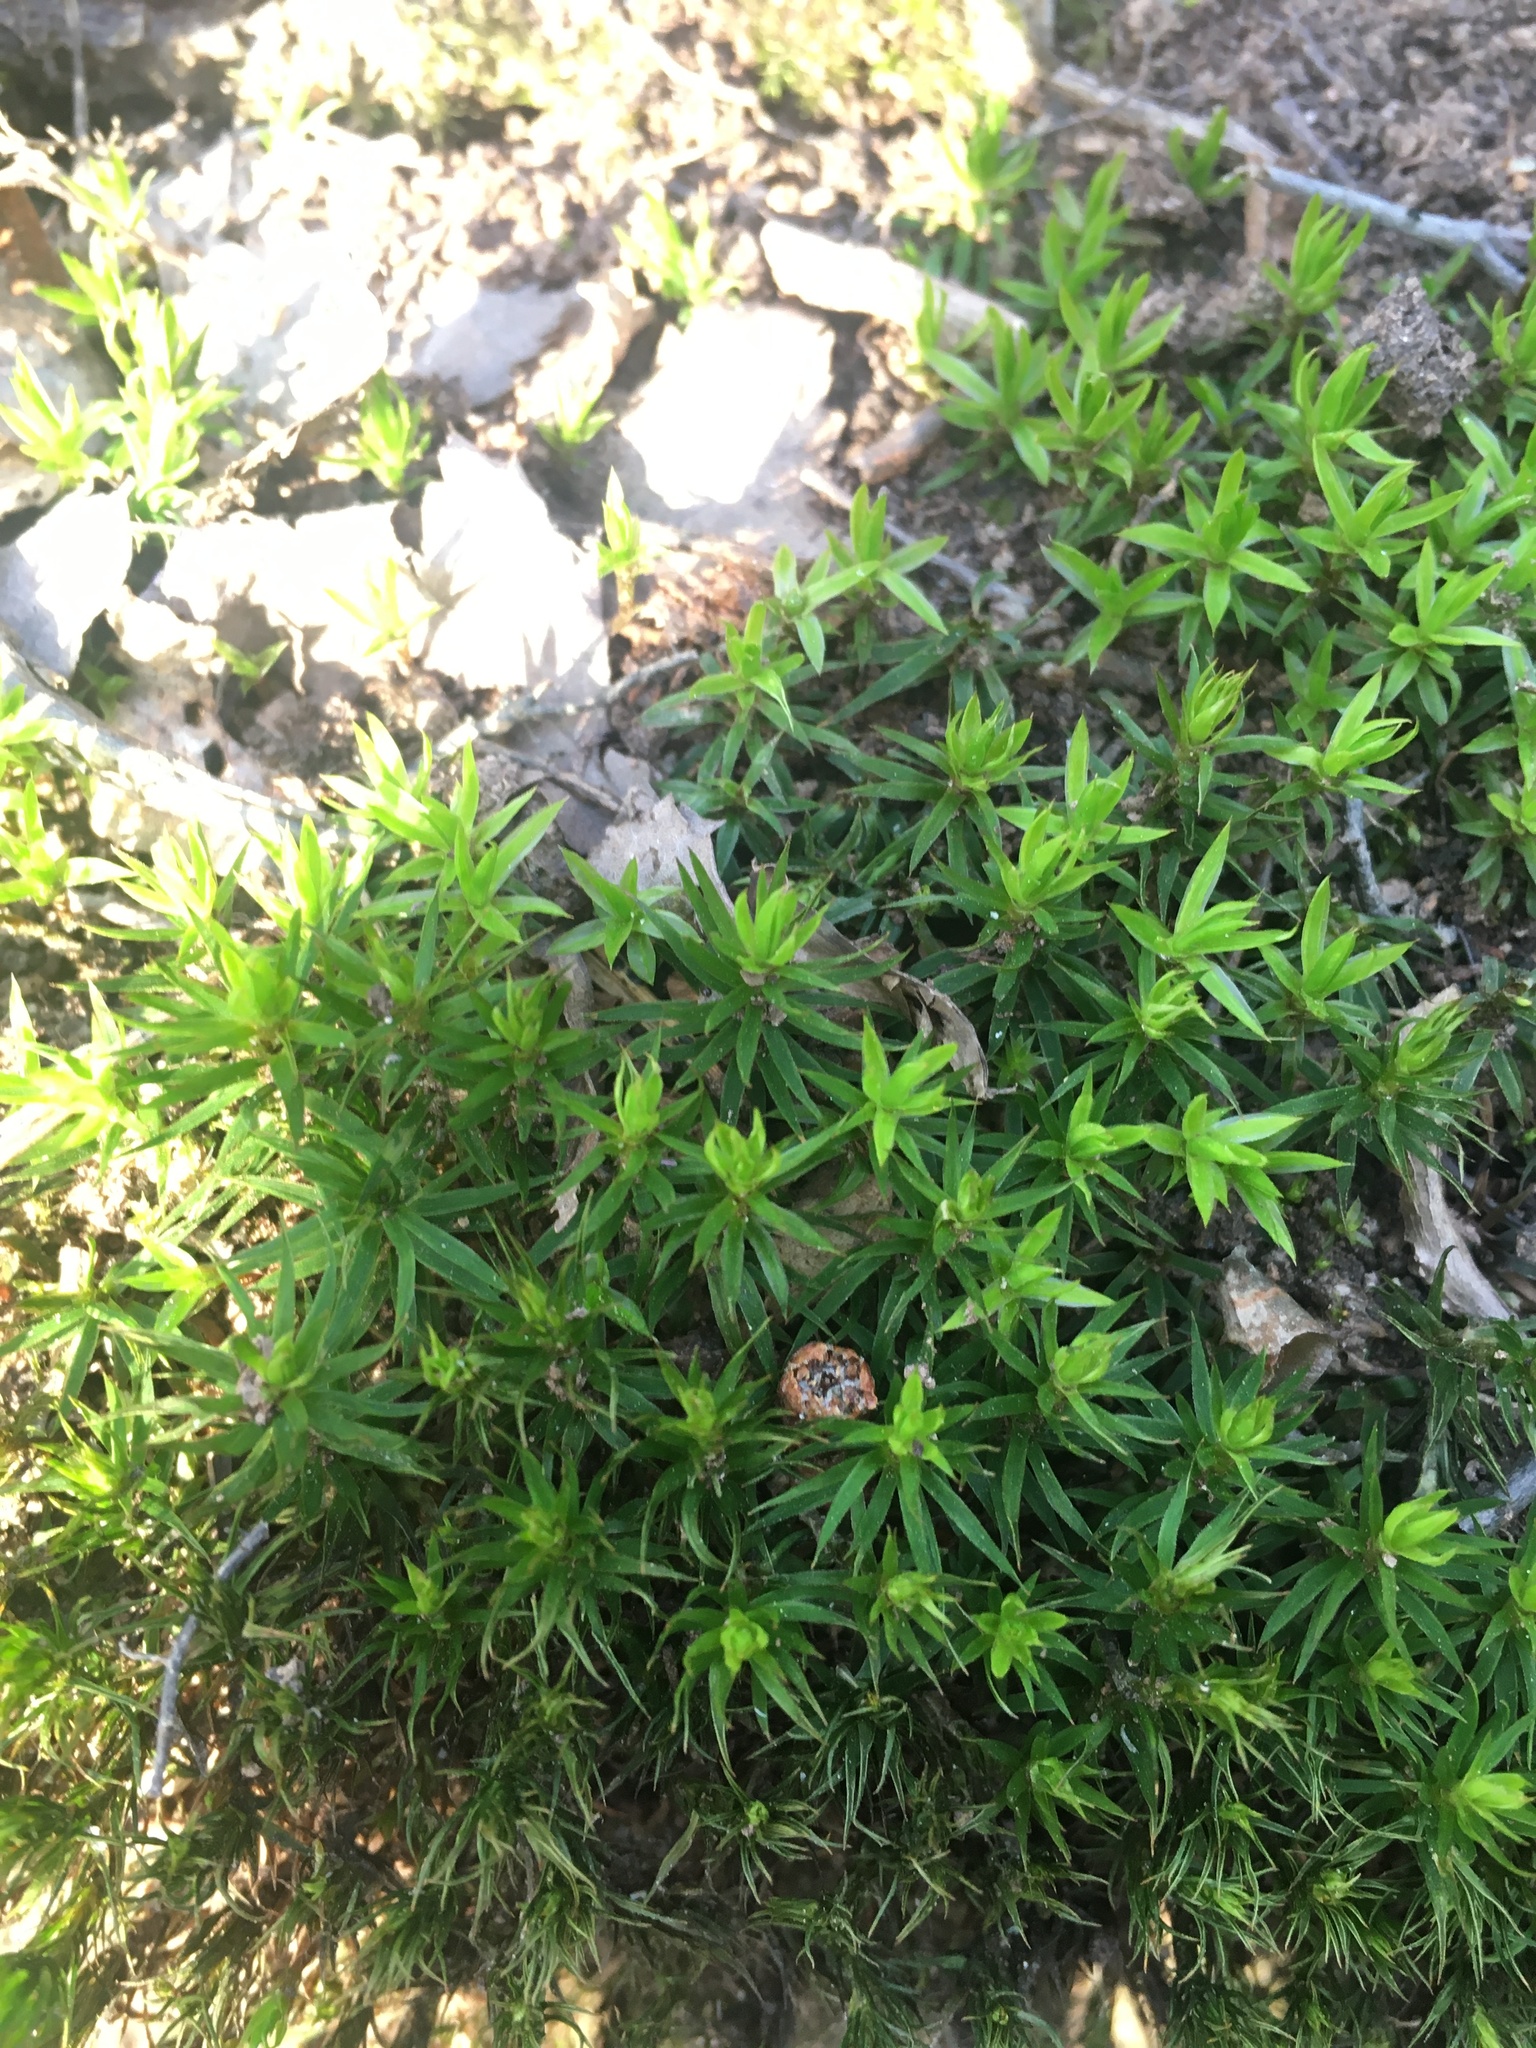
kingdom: Plantae
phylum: Bryophyta
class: Polytrichopsida
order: Polytrichales
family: Polytrichaceae
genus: Polytrichum
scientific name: Polytrichum formosum
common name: Bank haircap moss
